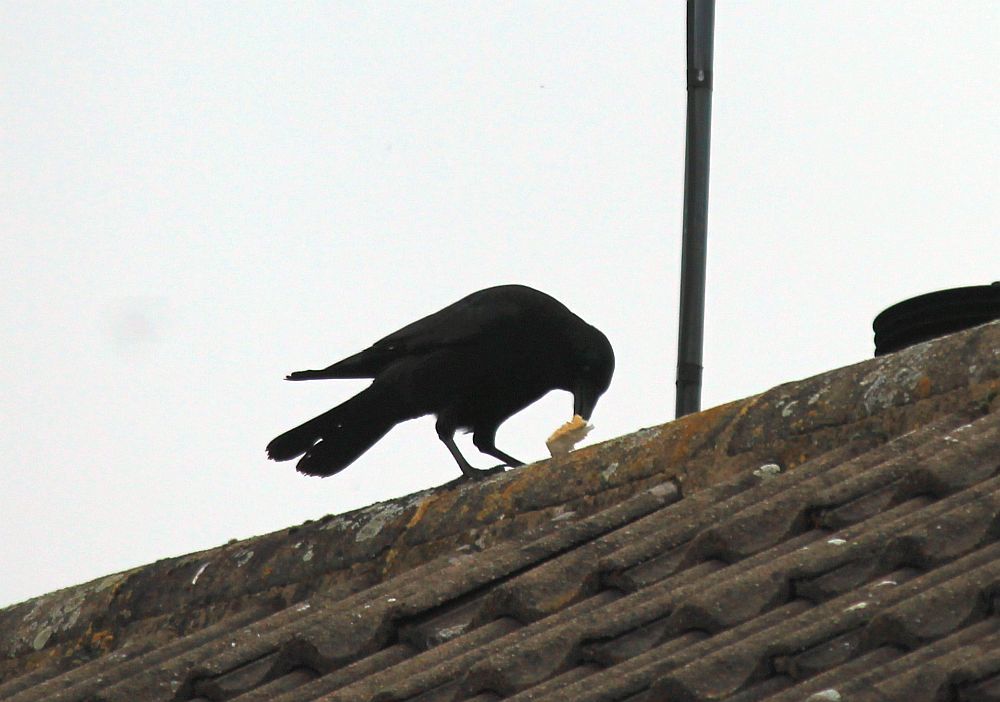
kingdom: Animalia
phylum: Chordata
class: Aves
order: Passeriformes
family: Corvidae
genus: Corvus
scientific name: Corvus corone
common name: Carrion crow
